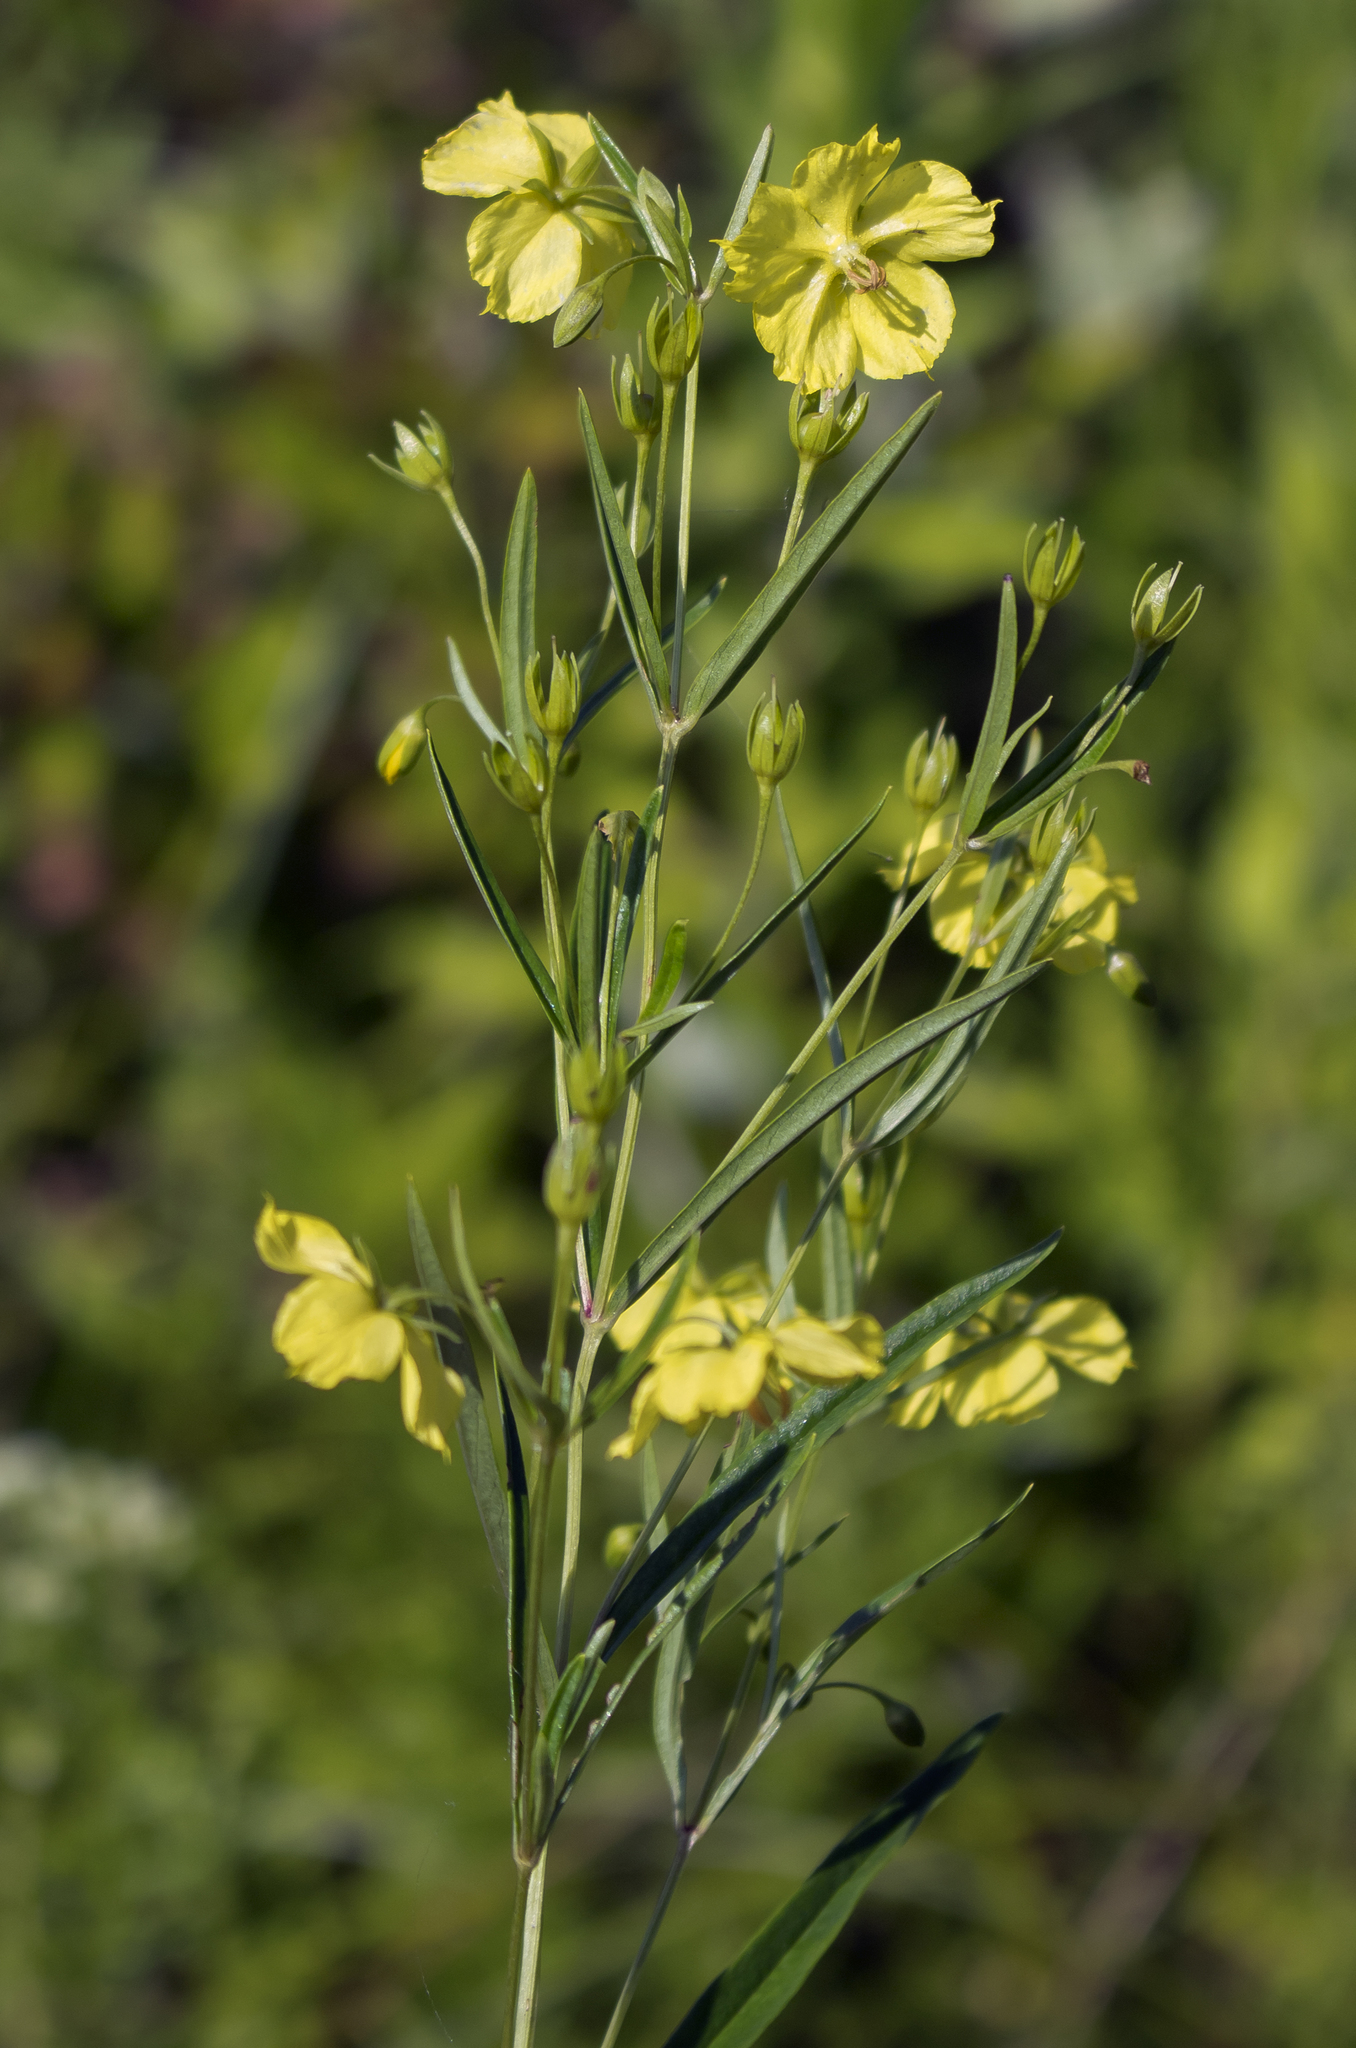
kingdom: Plantae
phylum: Tracheophyta
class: Magnoliopsida
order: Ericales
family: Primulaceae
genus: Lysimachia
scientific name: Lysimachia quadriflora
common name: Four-flowered loosestrife
